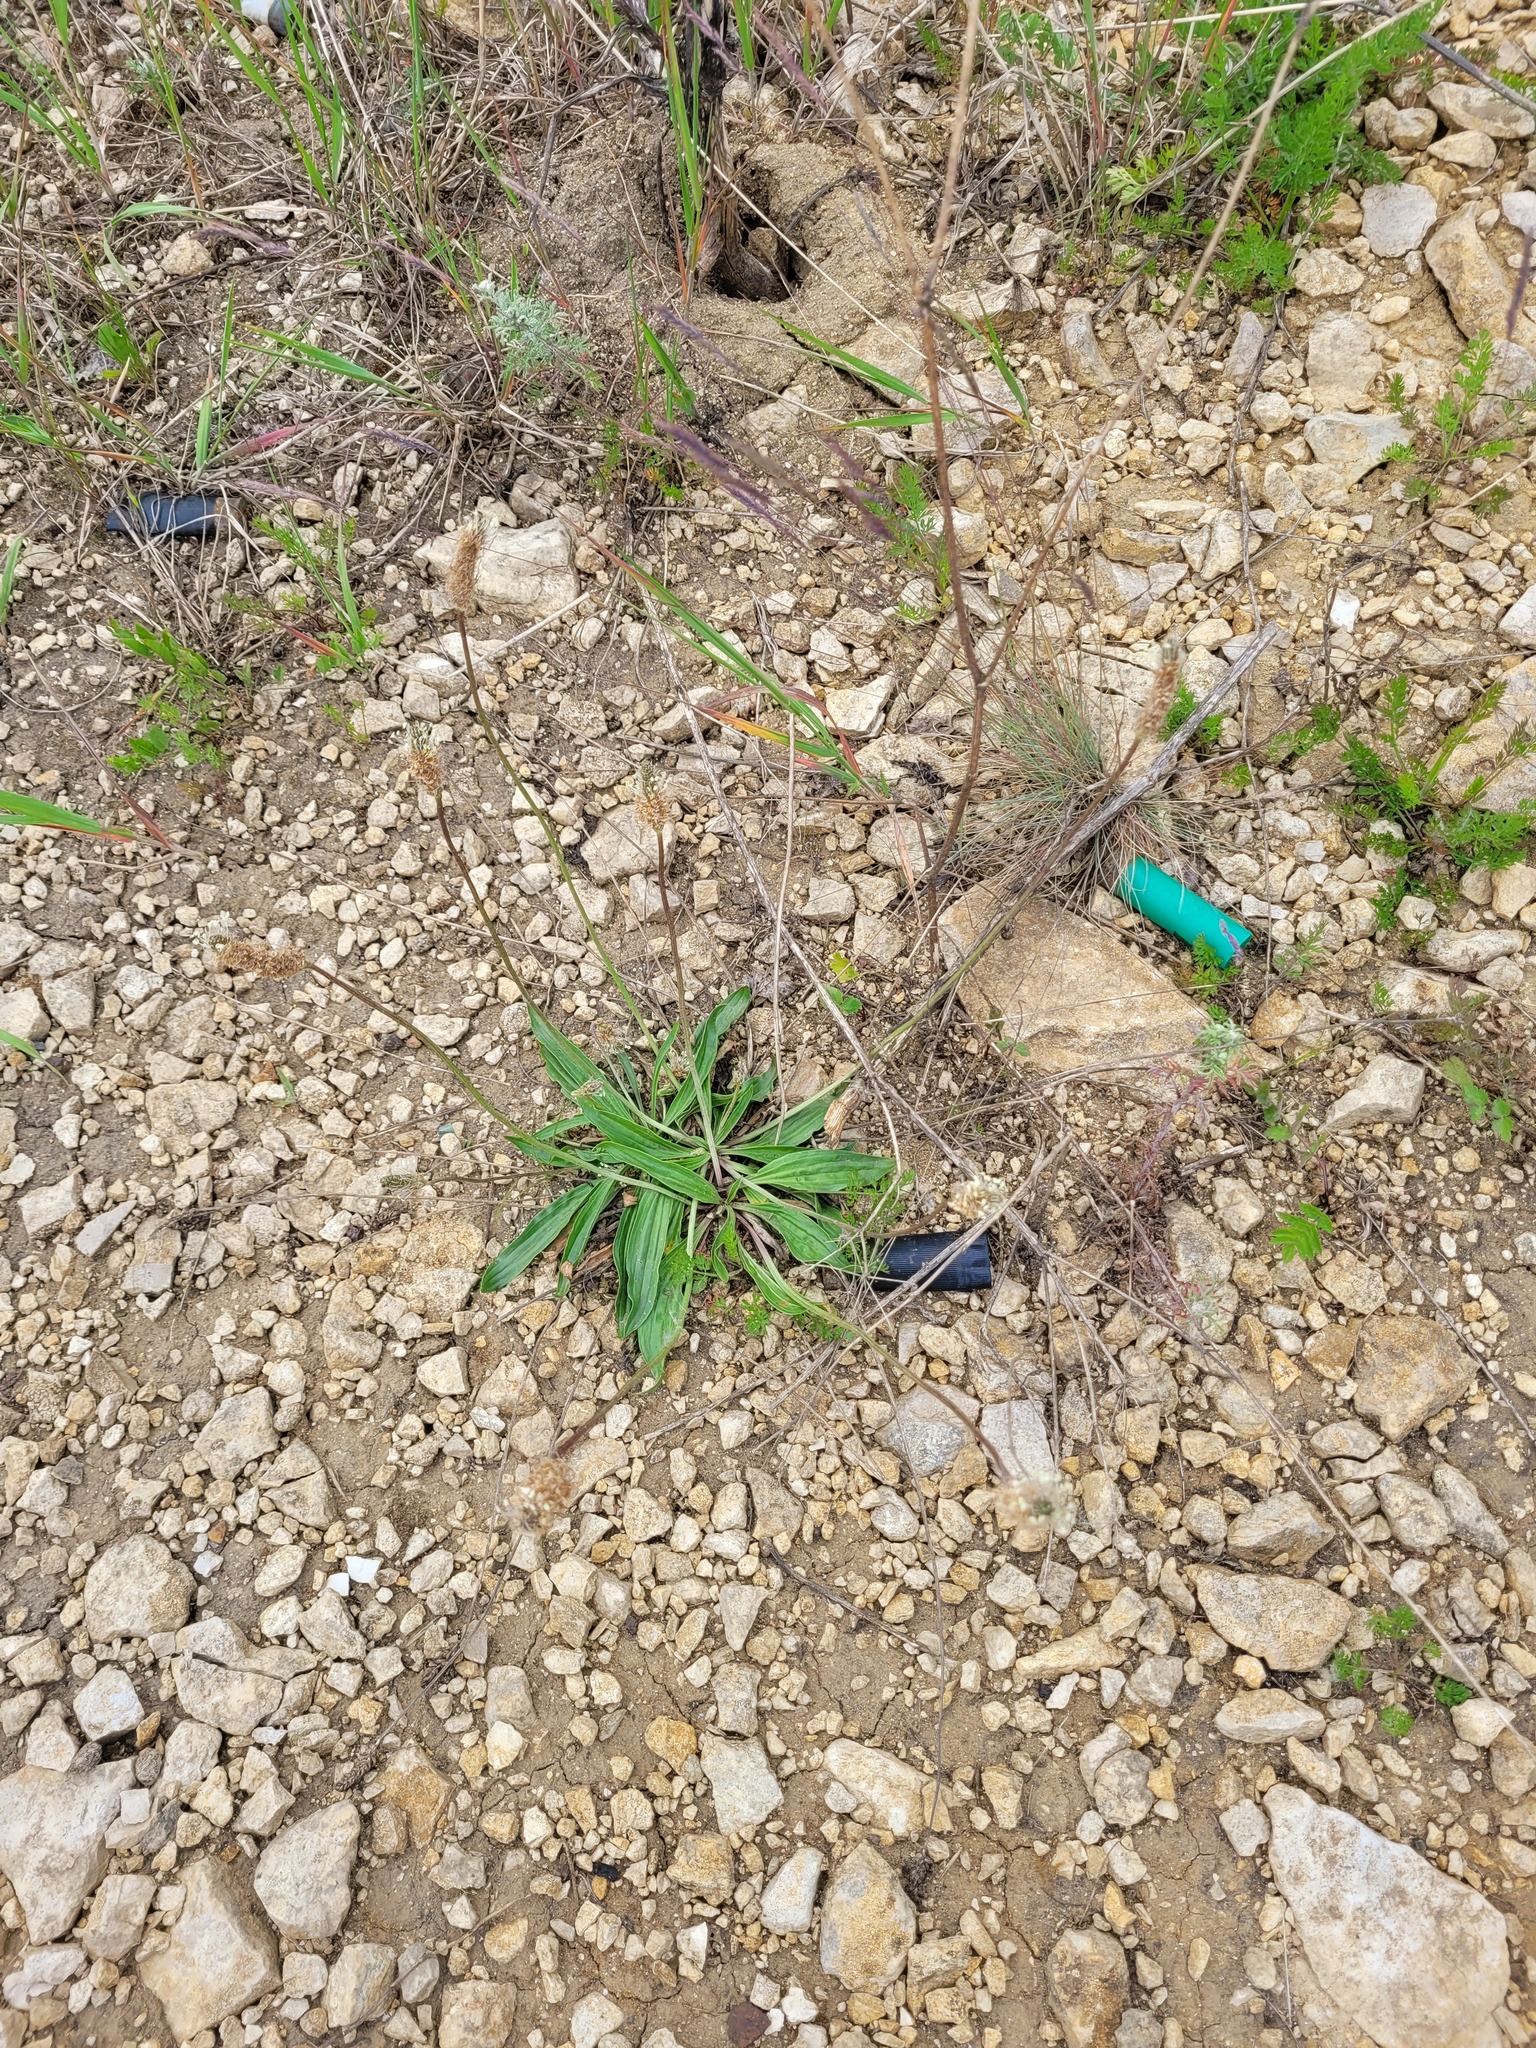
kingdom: Plantae
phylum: Tracheophyta
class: Magnoliopsida
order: Lamiales
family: Plantaginaceae
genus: Plantago
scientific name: Plantago lanceolata
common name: Ribwort plantain
